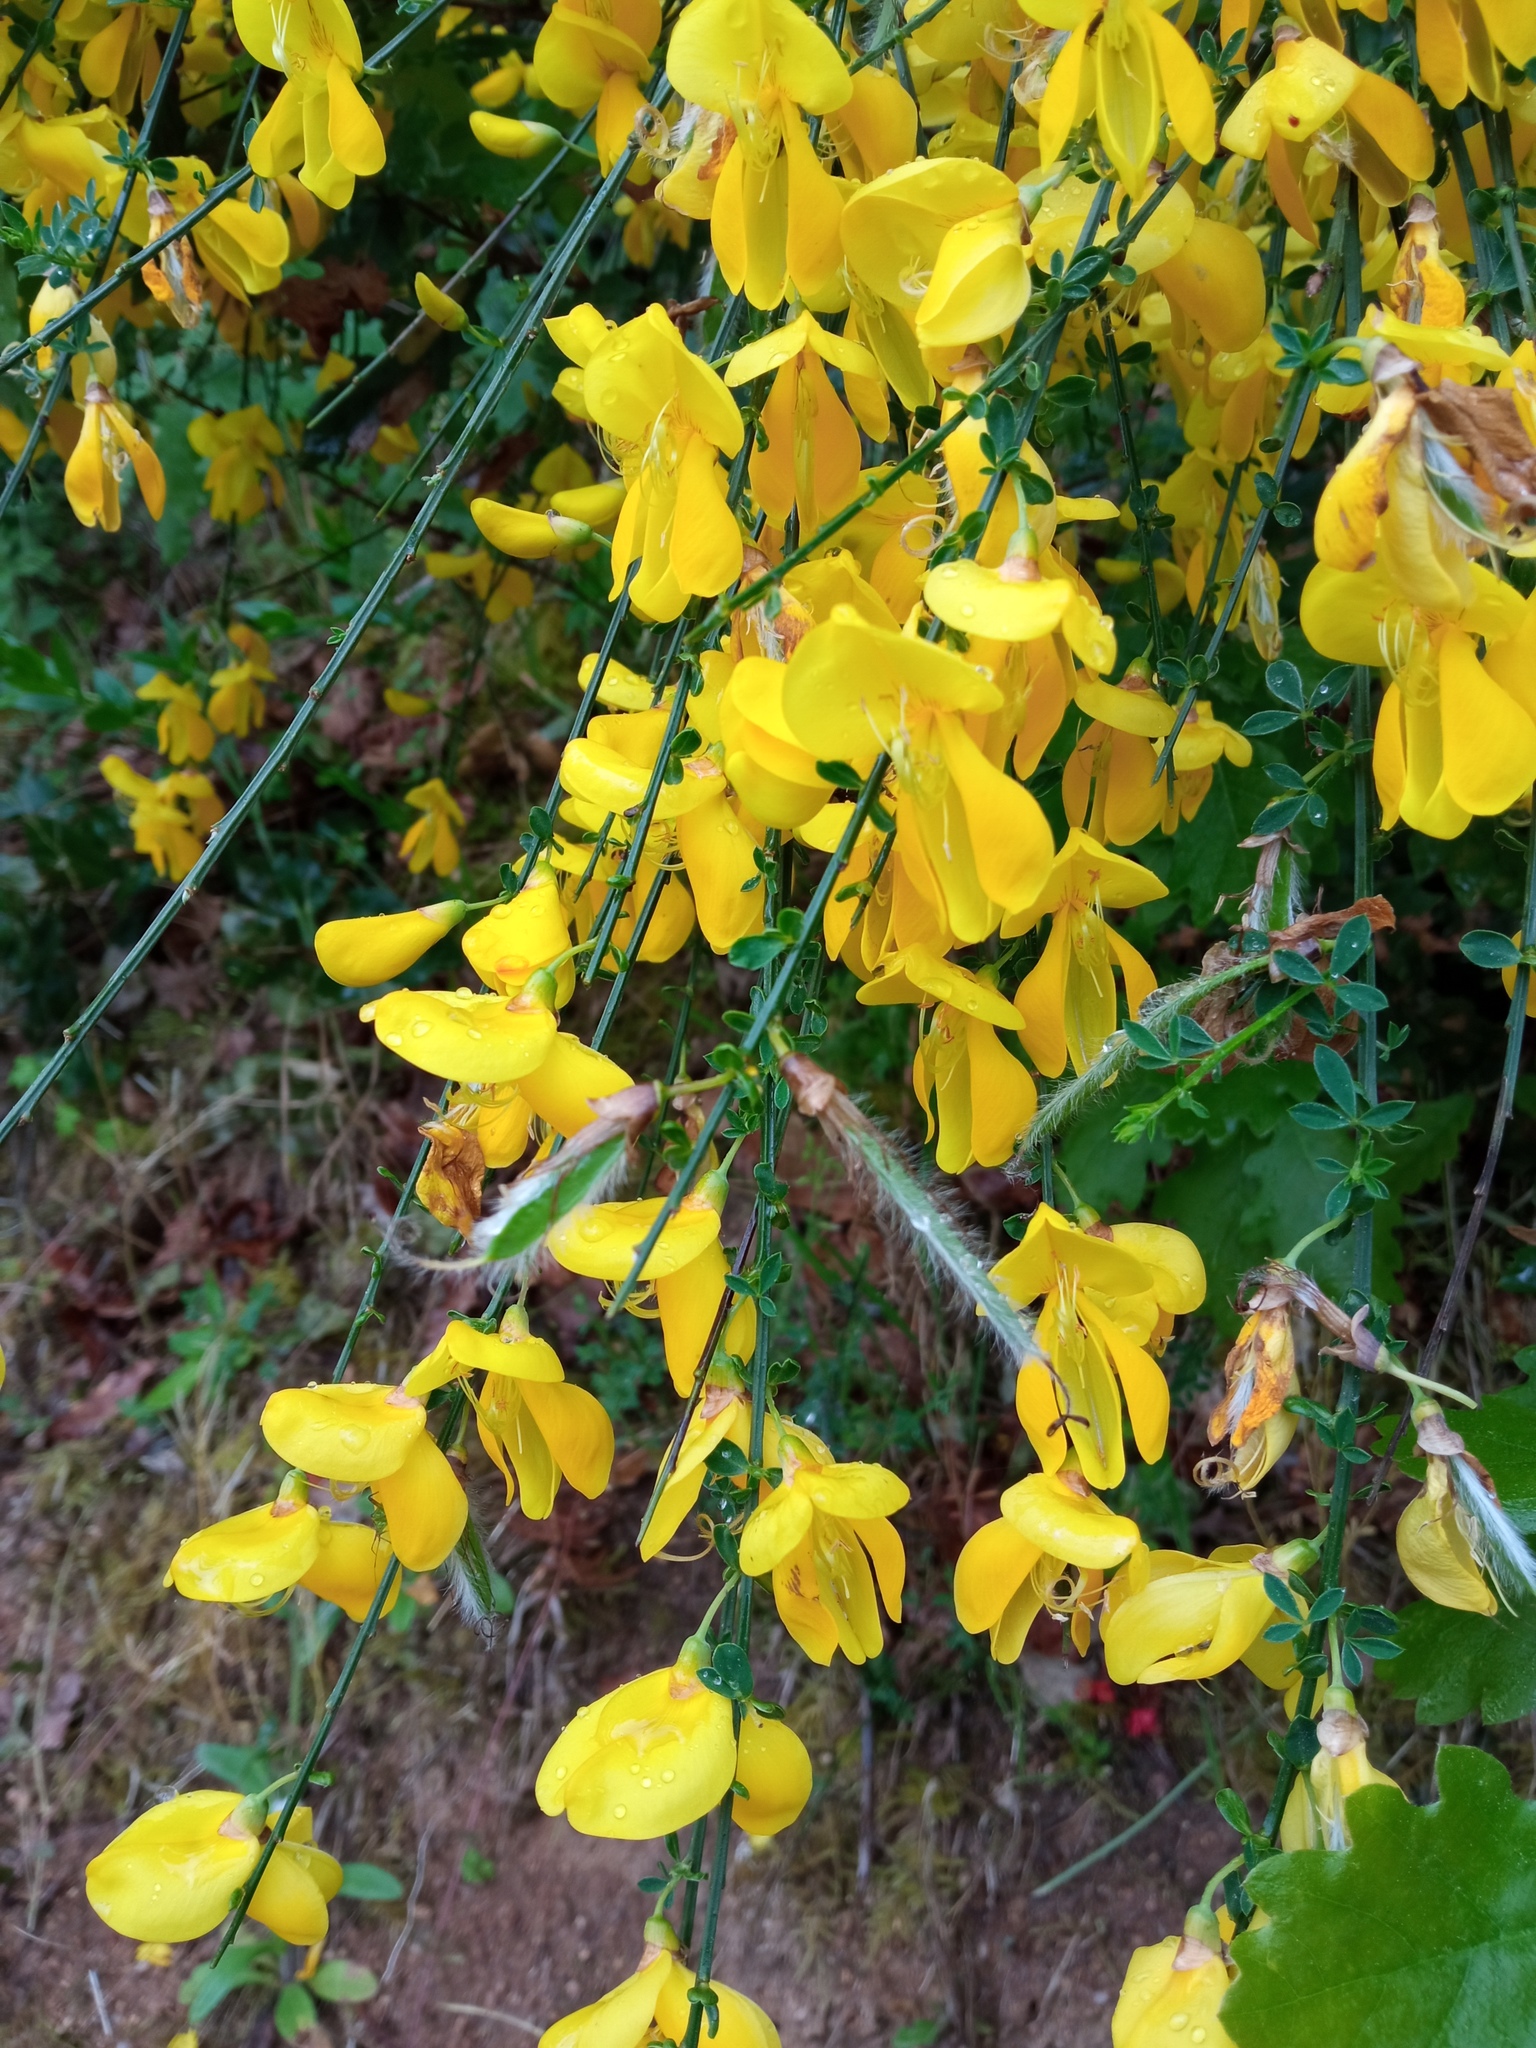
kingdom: Plantae
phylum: Tracheophyta
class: Magnoliopsida
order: Fabales
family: Fabaceae
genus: Cytisus
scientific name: Cytisus scoparius
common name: Scotch broom
